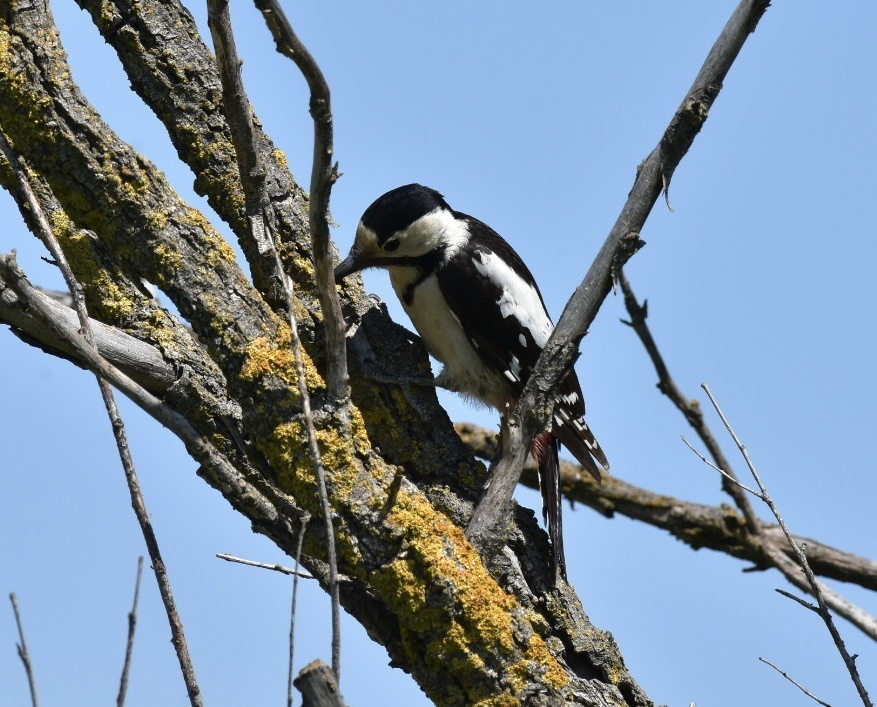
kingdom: Animalia
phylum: Chordata
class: Aves
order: Piciformes
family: Picidae
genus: Dendrocopos
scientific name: Dendrocopos syriacus
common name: Syrian woodpecker
